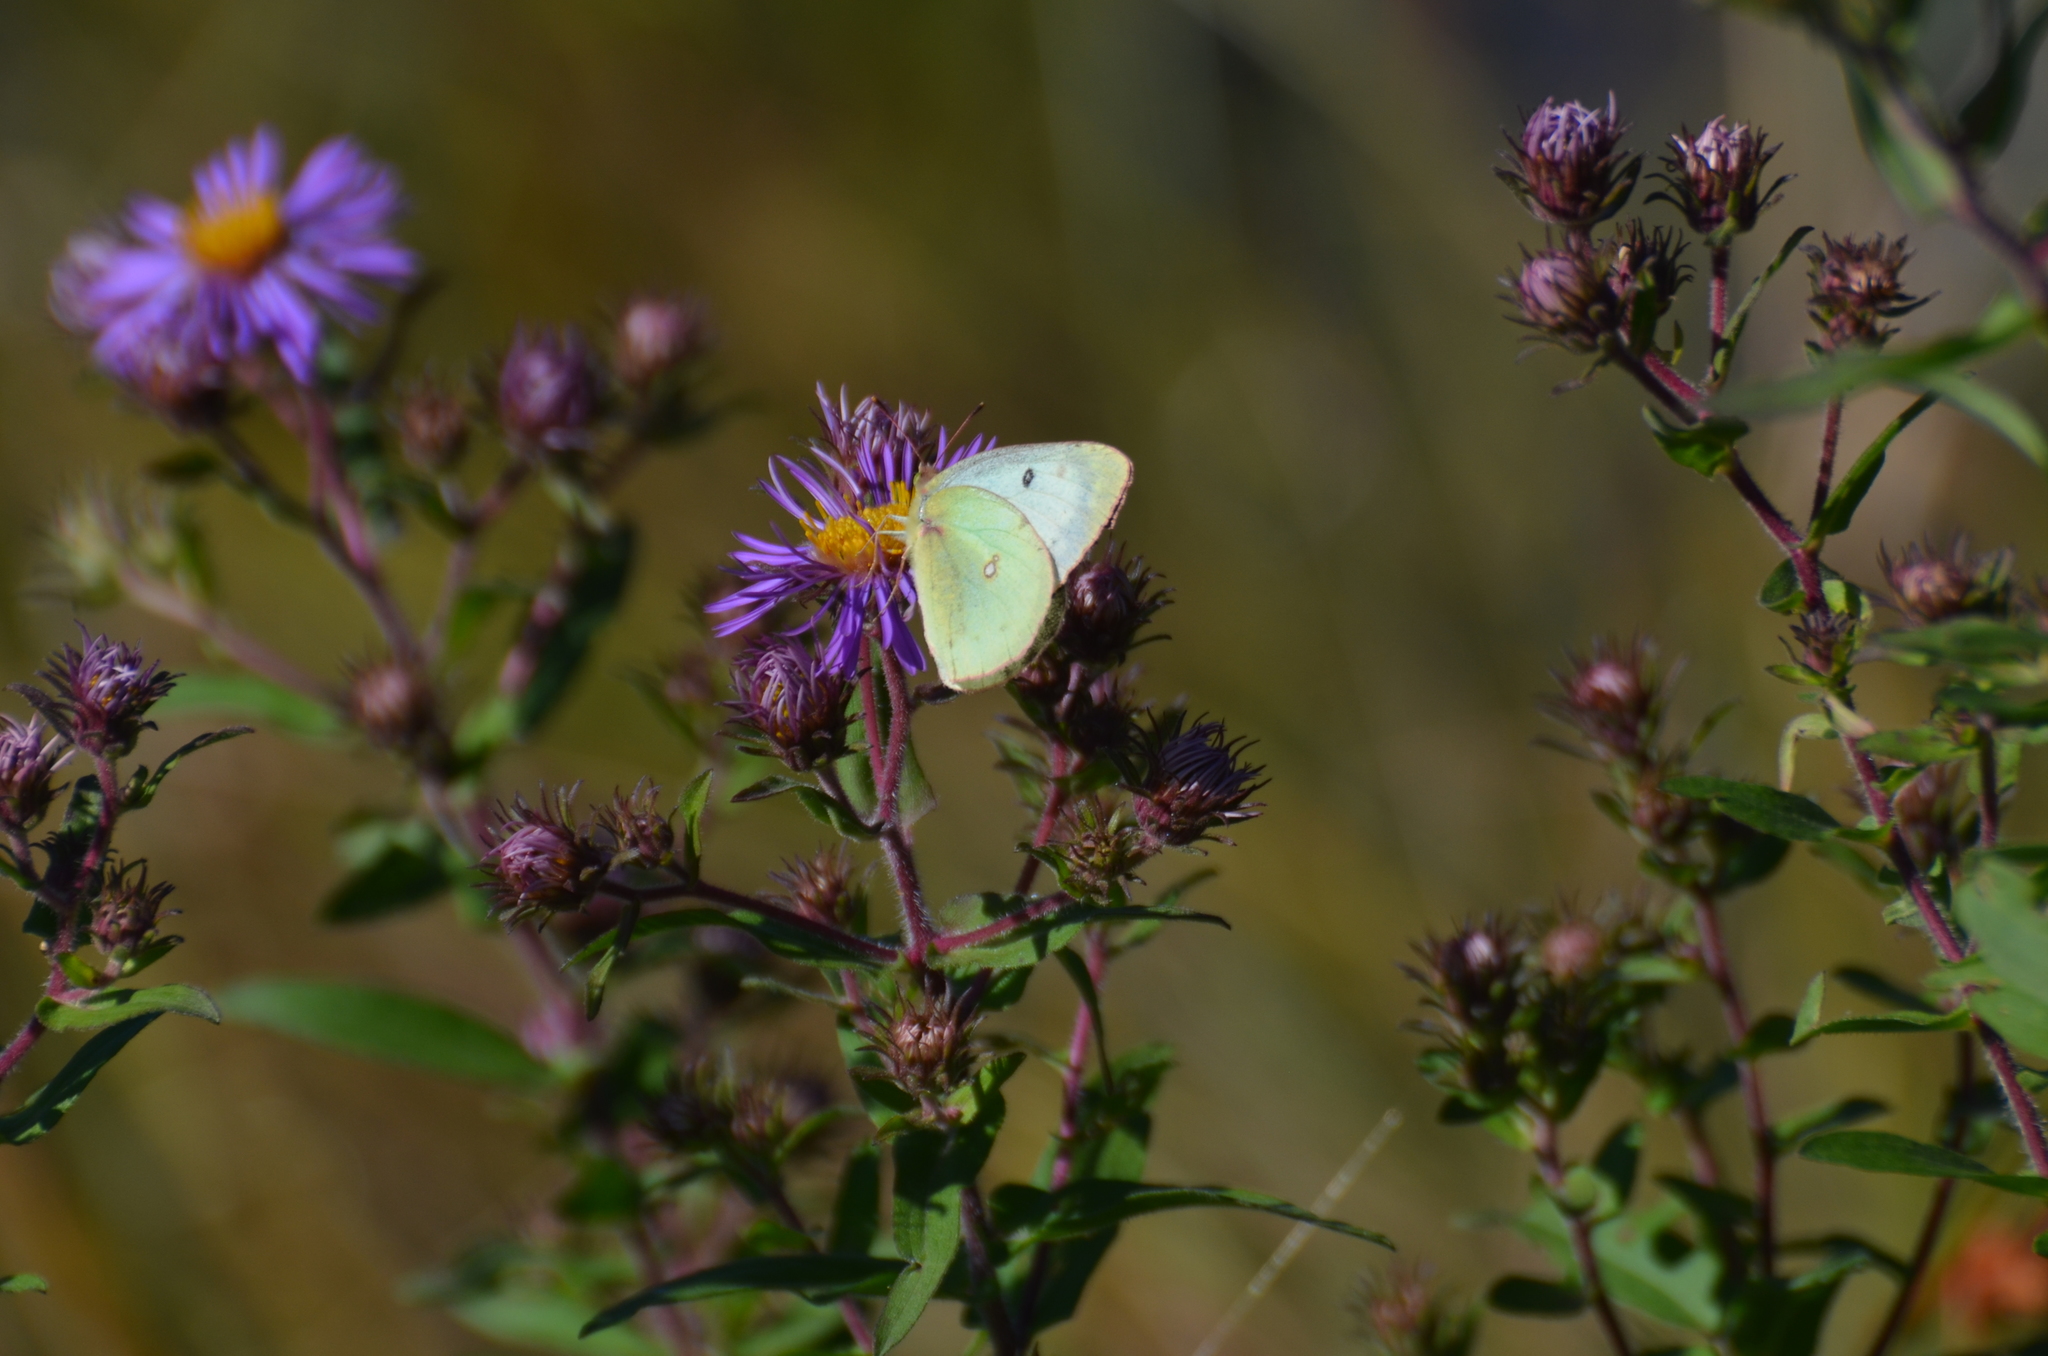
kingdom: Animalia
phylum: Arthropoda
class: Insecta
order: Lepidoptera
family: Pieridae
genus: Colias
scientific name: Colias philodice
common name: Clouded sulphur
